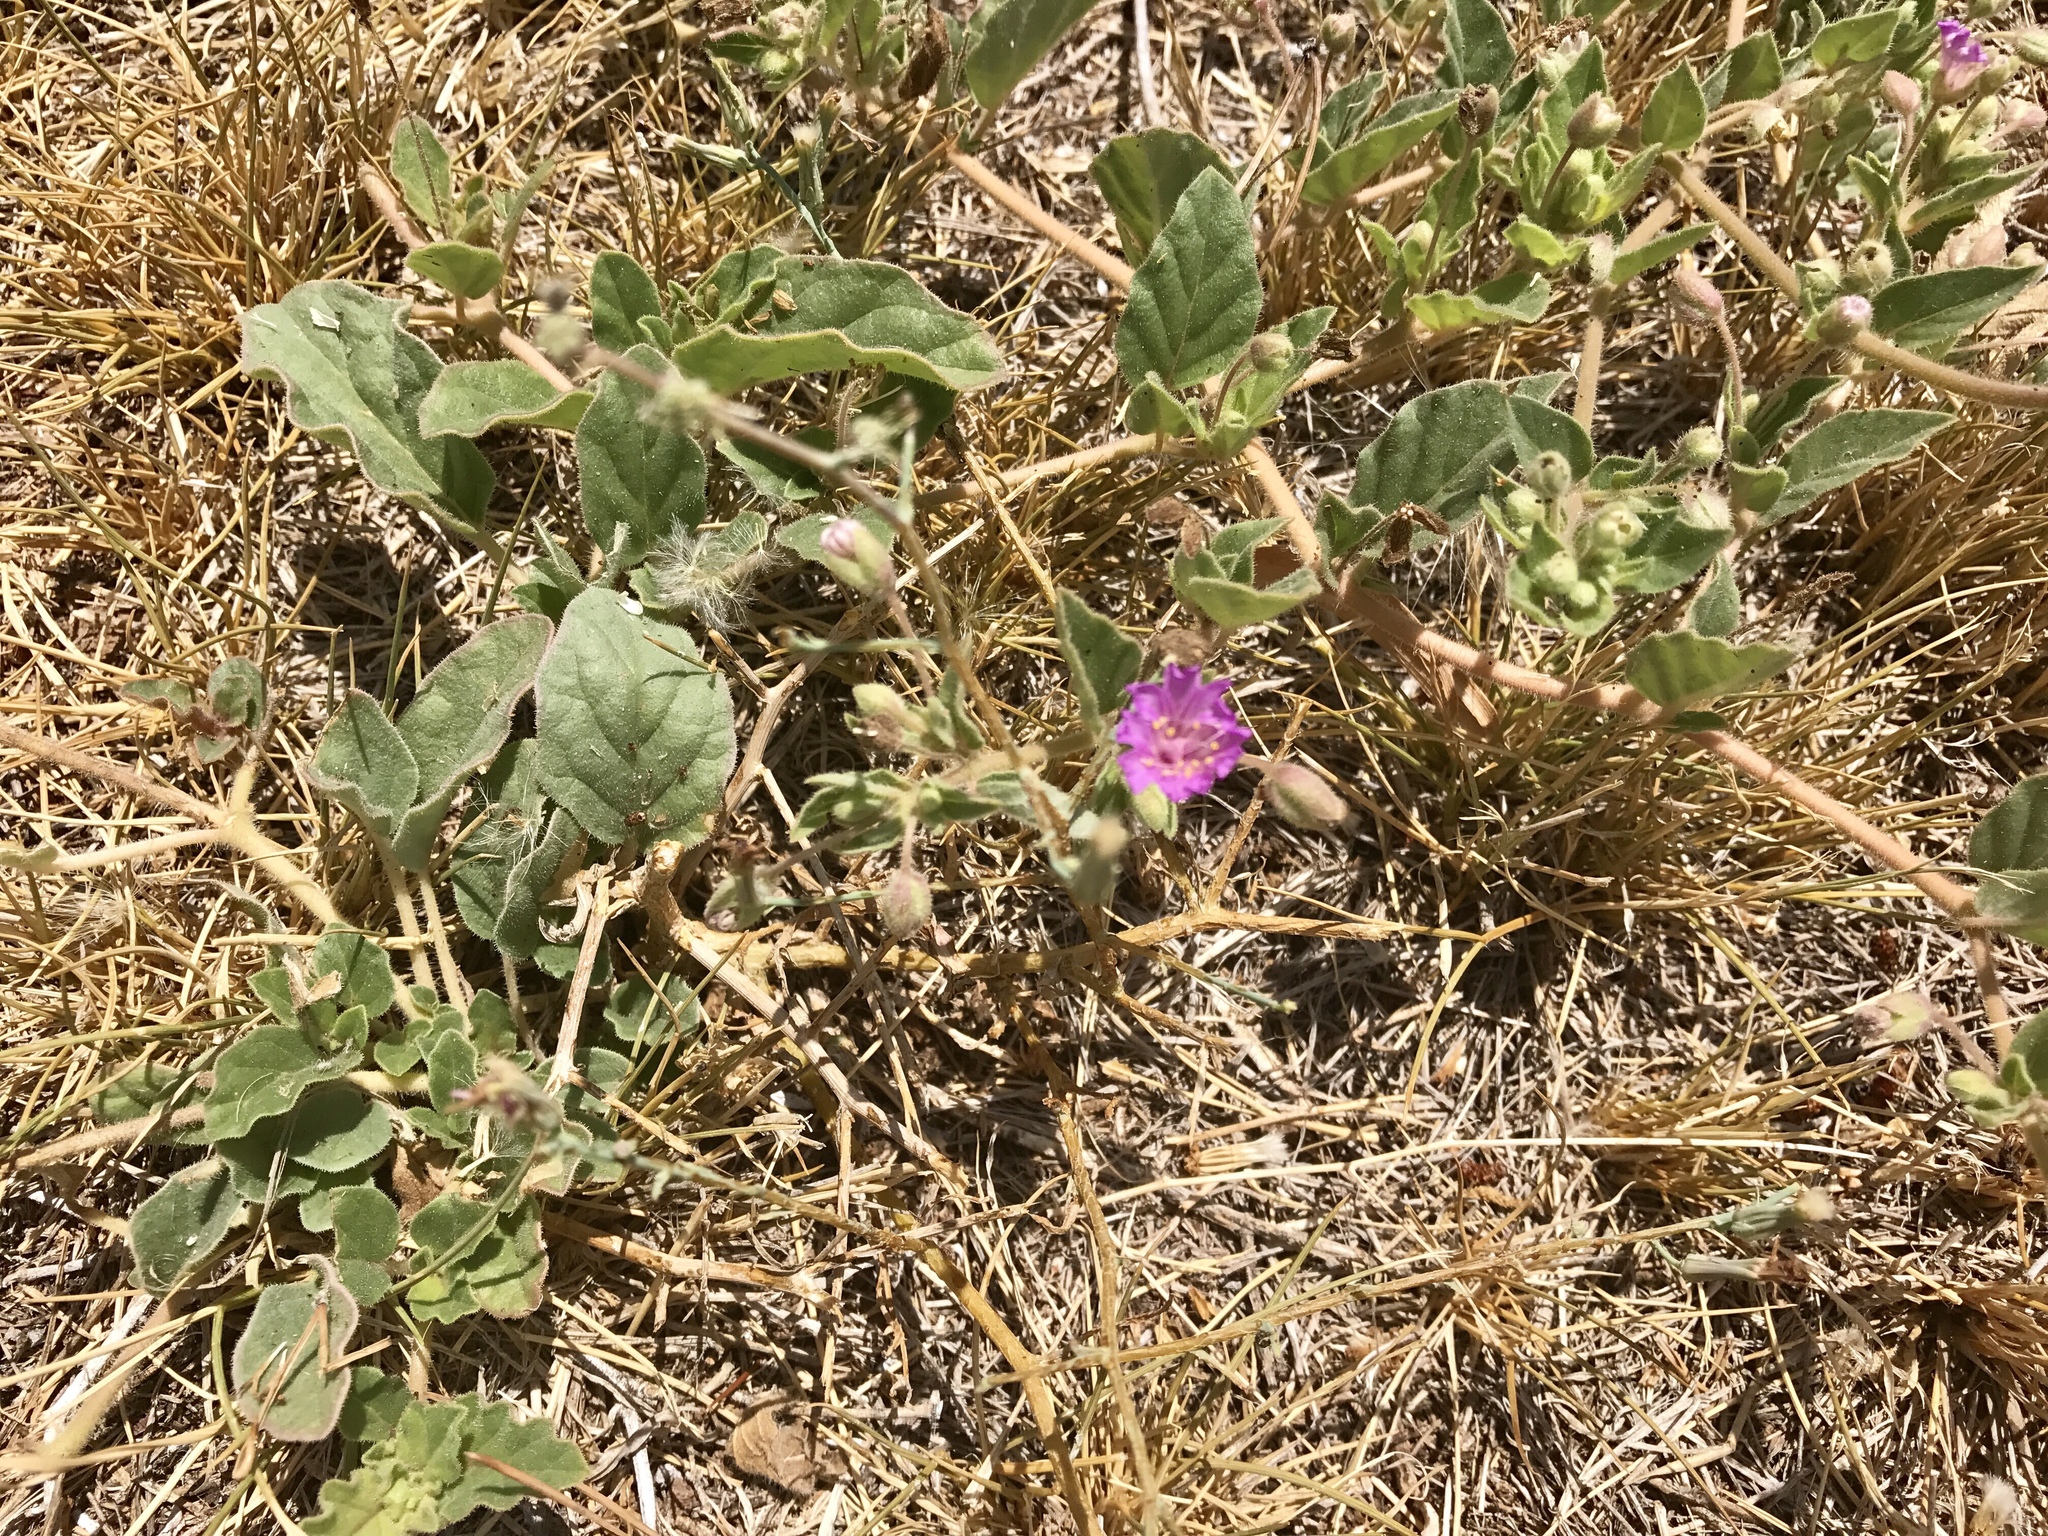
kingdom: Plantae
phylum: Tracheophyta
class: Magnoliopsida
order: Caryophyllales
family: Nyctaginaceae
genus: Allionia
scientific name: Allionia incarnata
